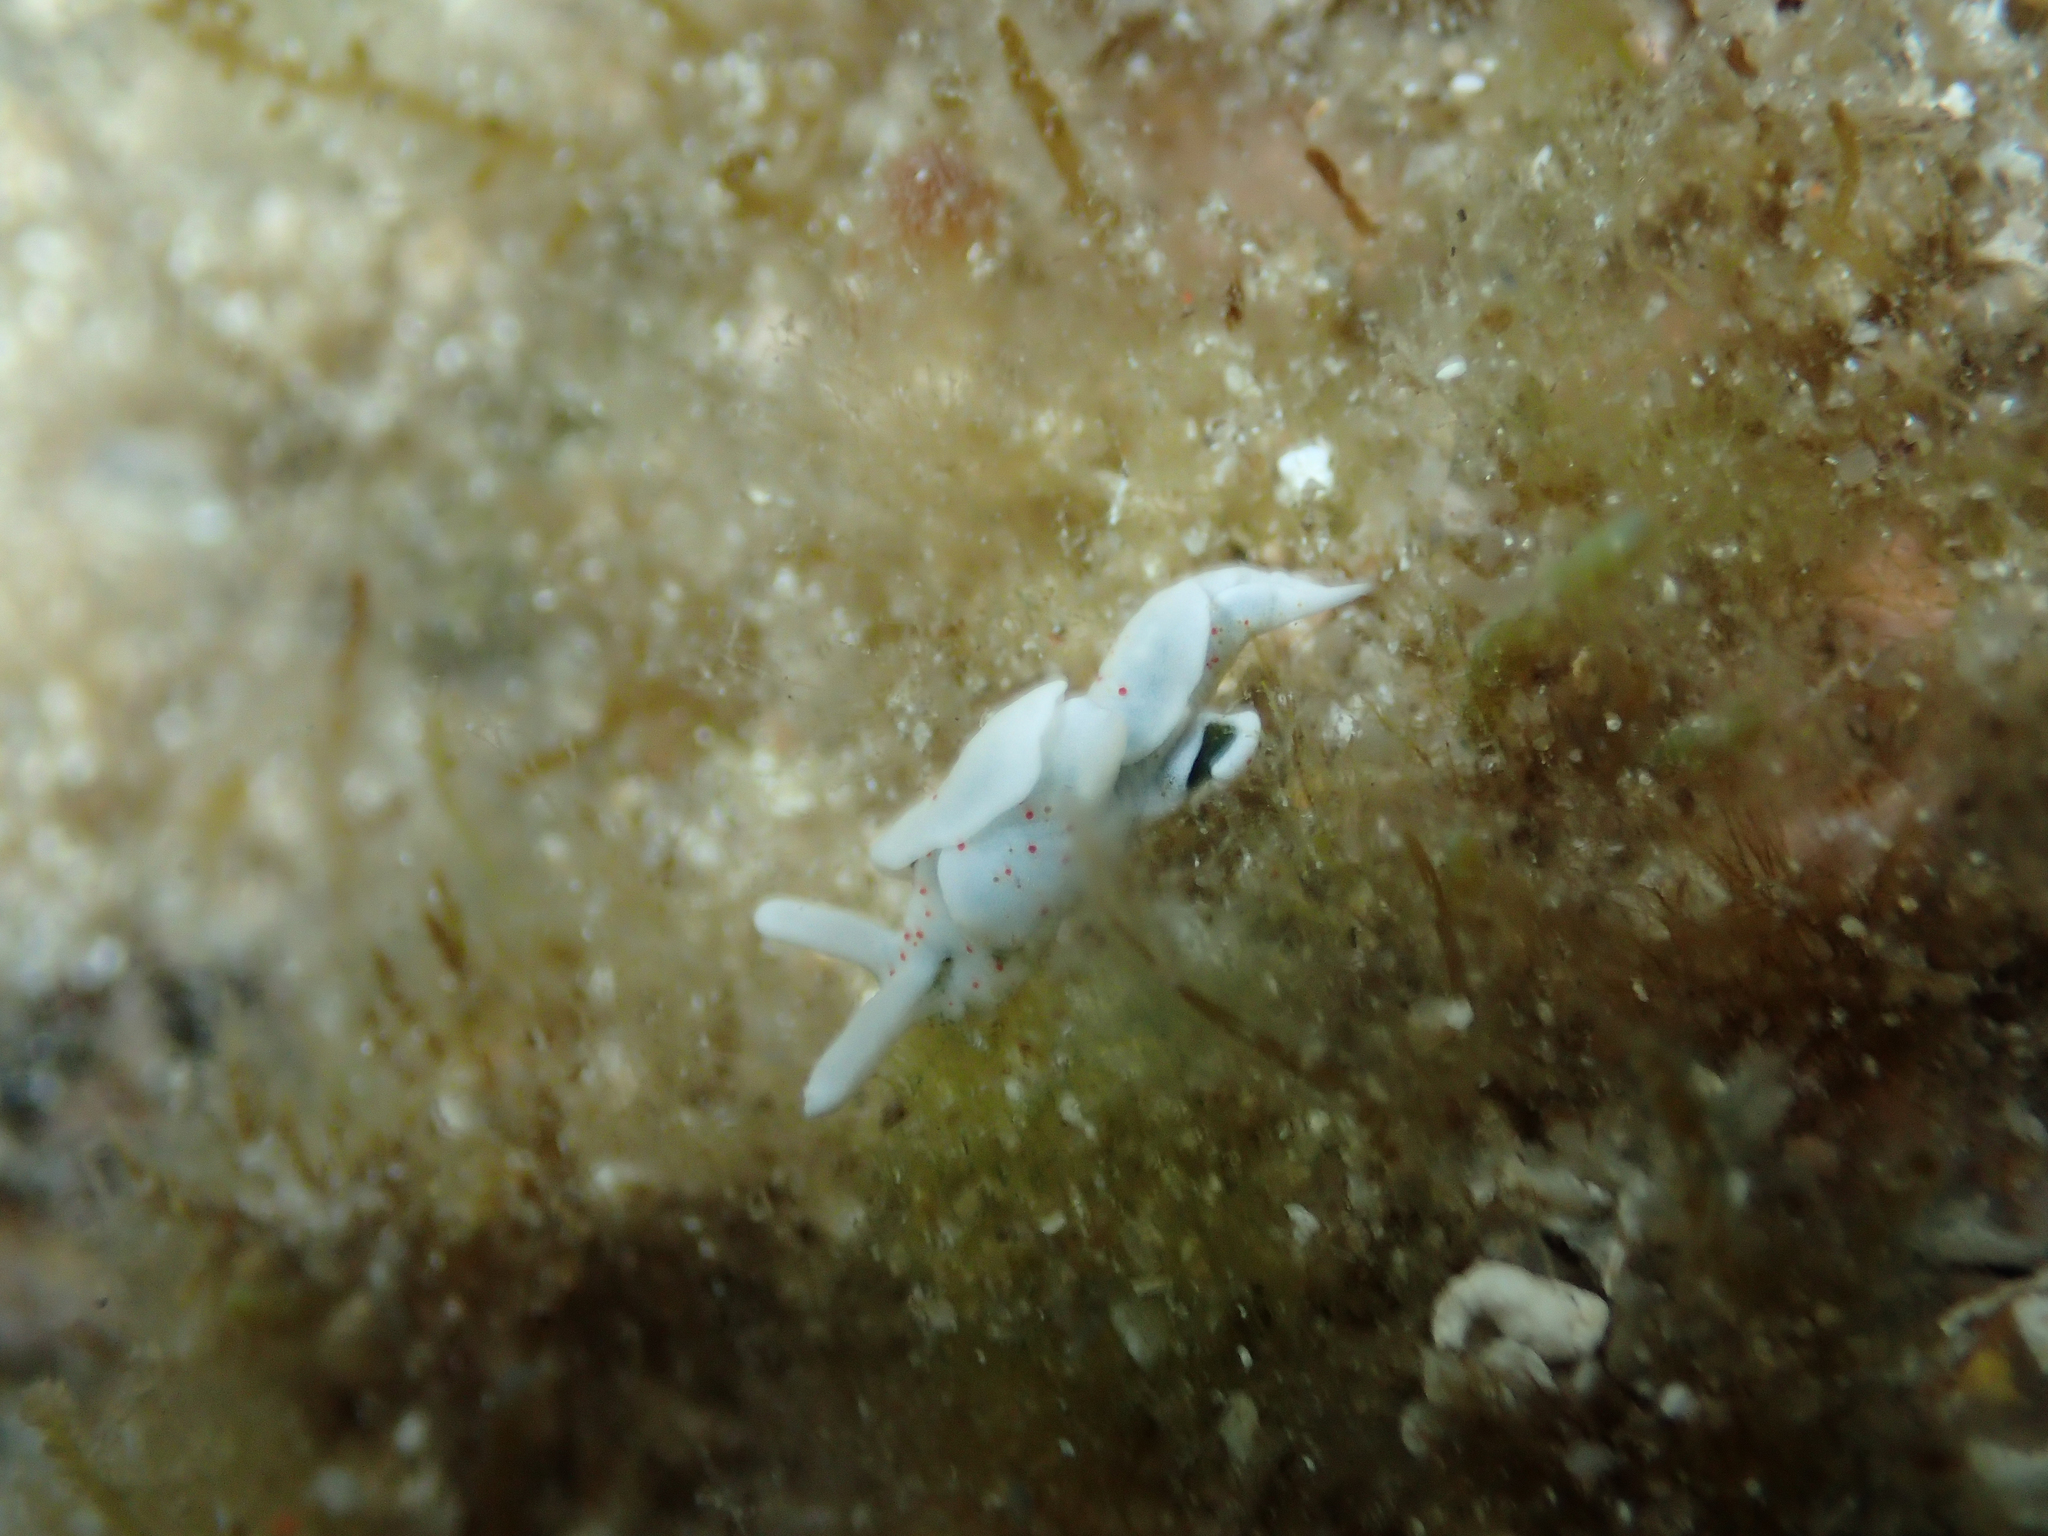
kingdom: Animalia
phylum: Mollusca
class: Gastropoda
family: Plakobranchidae
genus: Elysia
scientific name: Elysia timida
